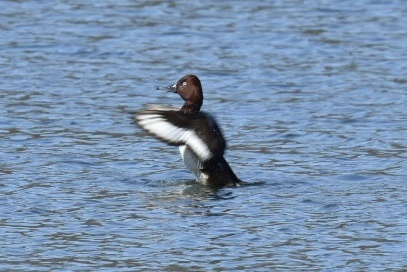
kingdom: Animalia
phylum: Chordata
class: Aves
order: Anseriformes
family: Anatidae
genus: Aythya
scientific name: Aythya nyroca
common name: Ferruginous duck
